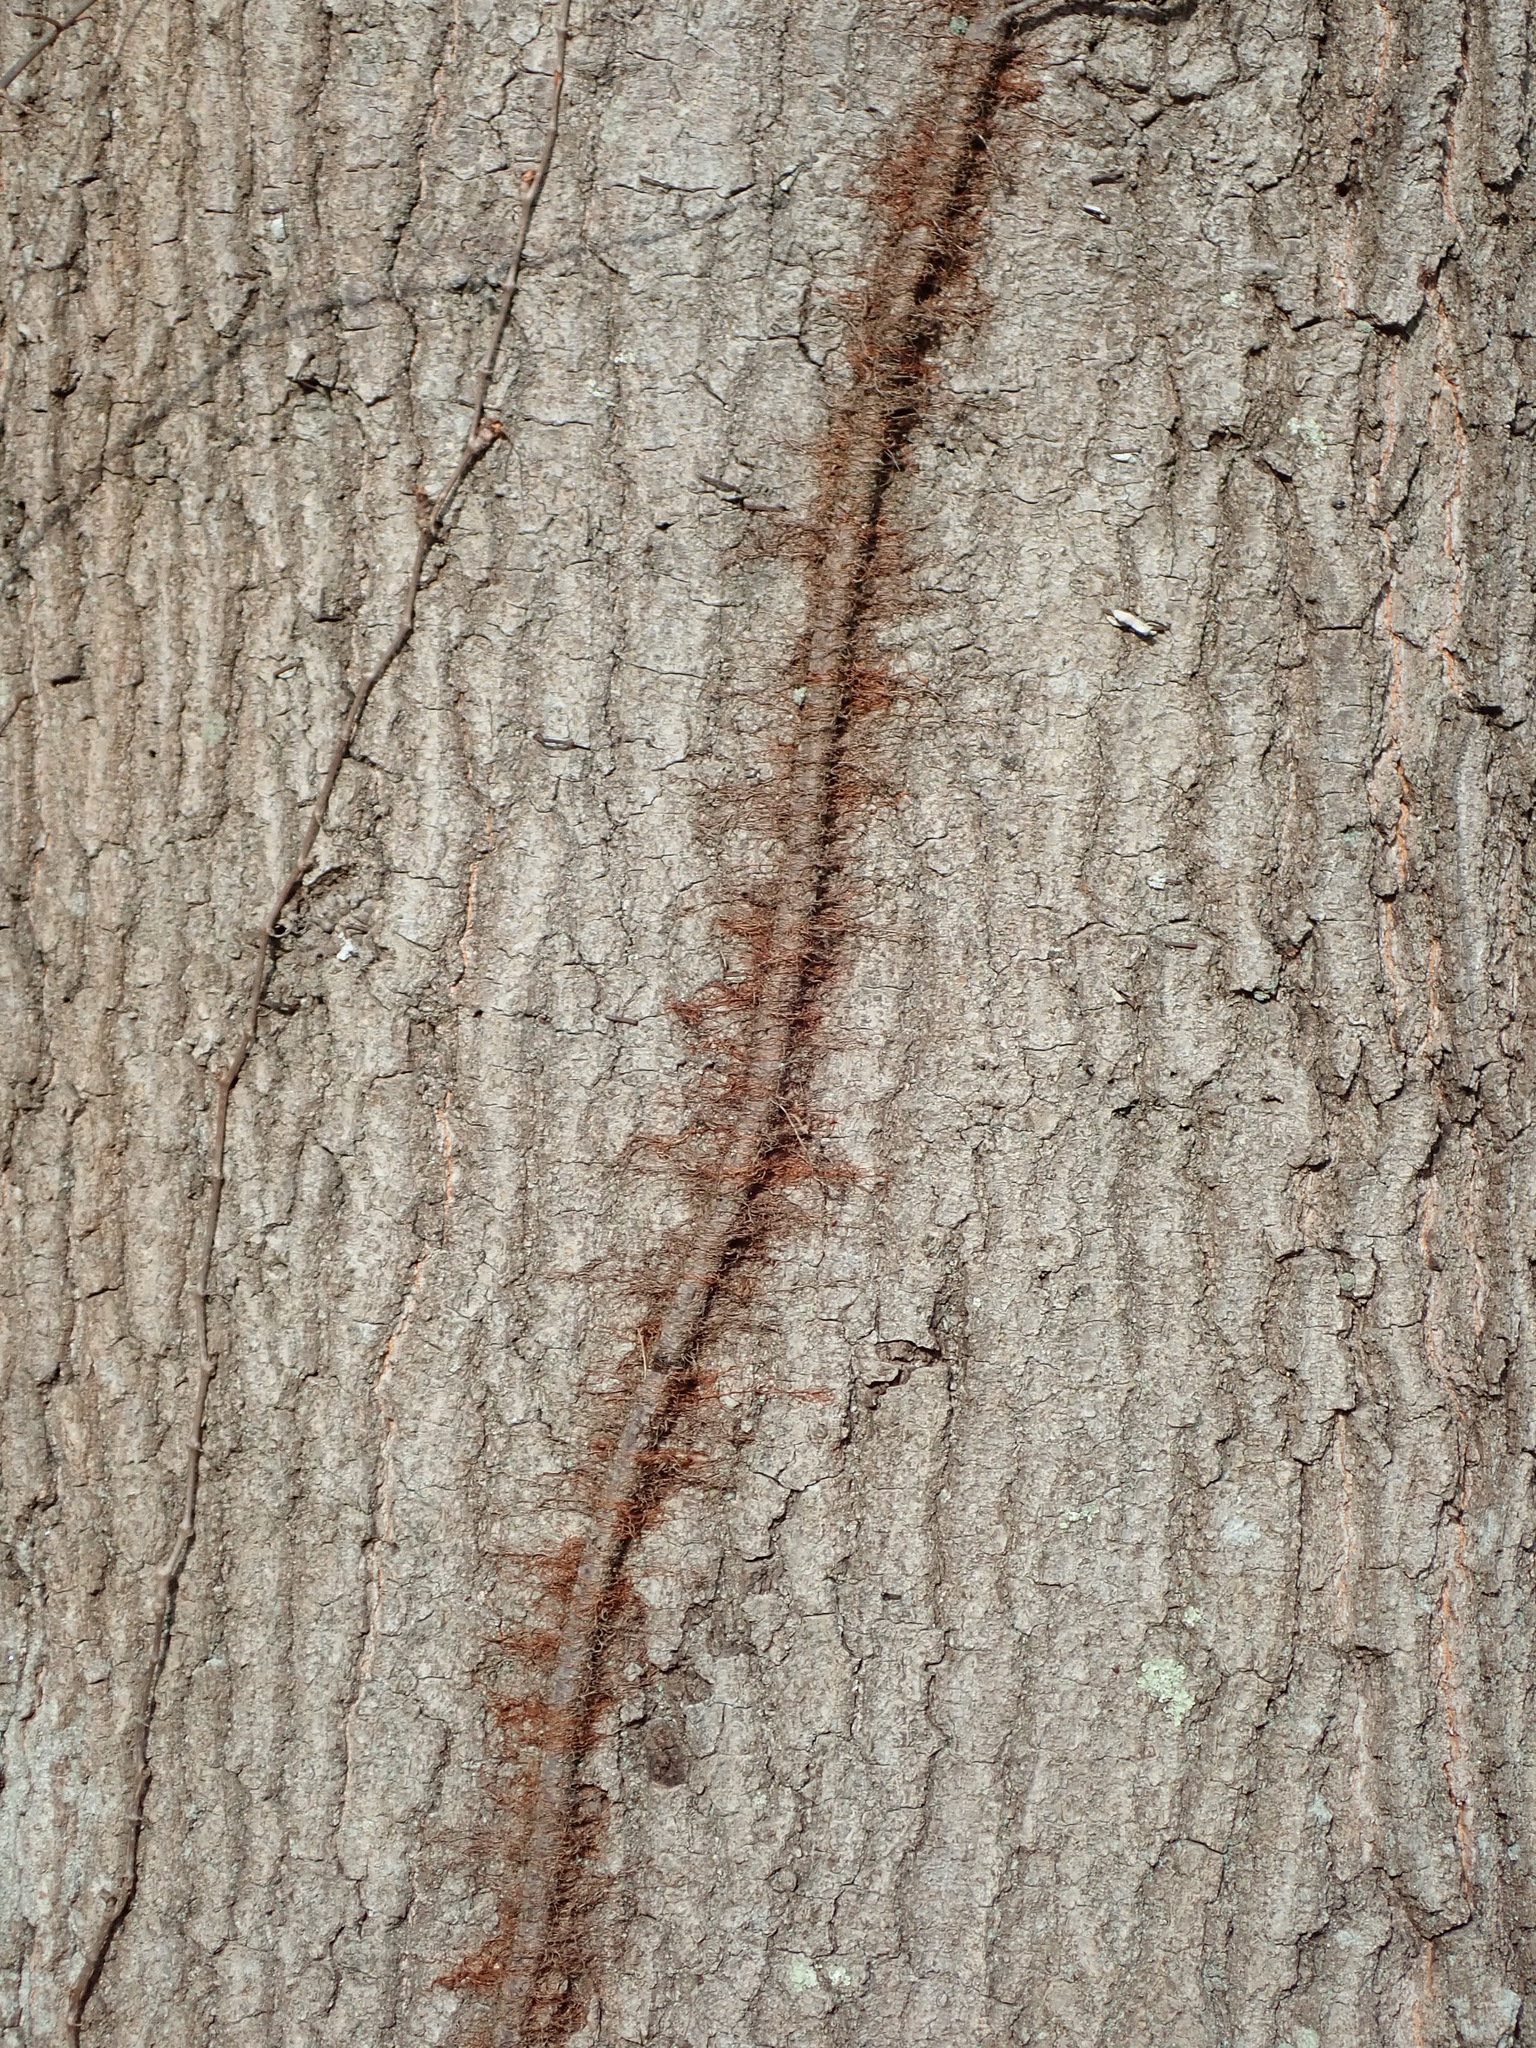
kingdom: Plantae
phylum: Tracheophyta
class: Magnoliopsida
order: Sapindales
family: Anacardiaceae
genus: Toxicodendron
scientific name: Toxicodendron radicans
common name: Poison ivy
